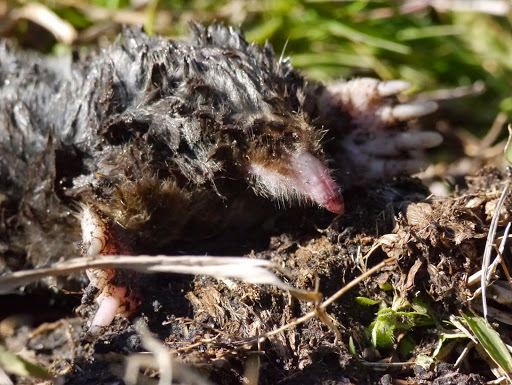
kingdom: Animalia
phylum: Chordata
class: Mammalia
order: Soricomorpha
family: Talpidae
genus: Scalopus
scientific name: Scalopus aquaticus
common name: Eastern mole
